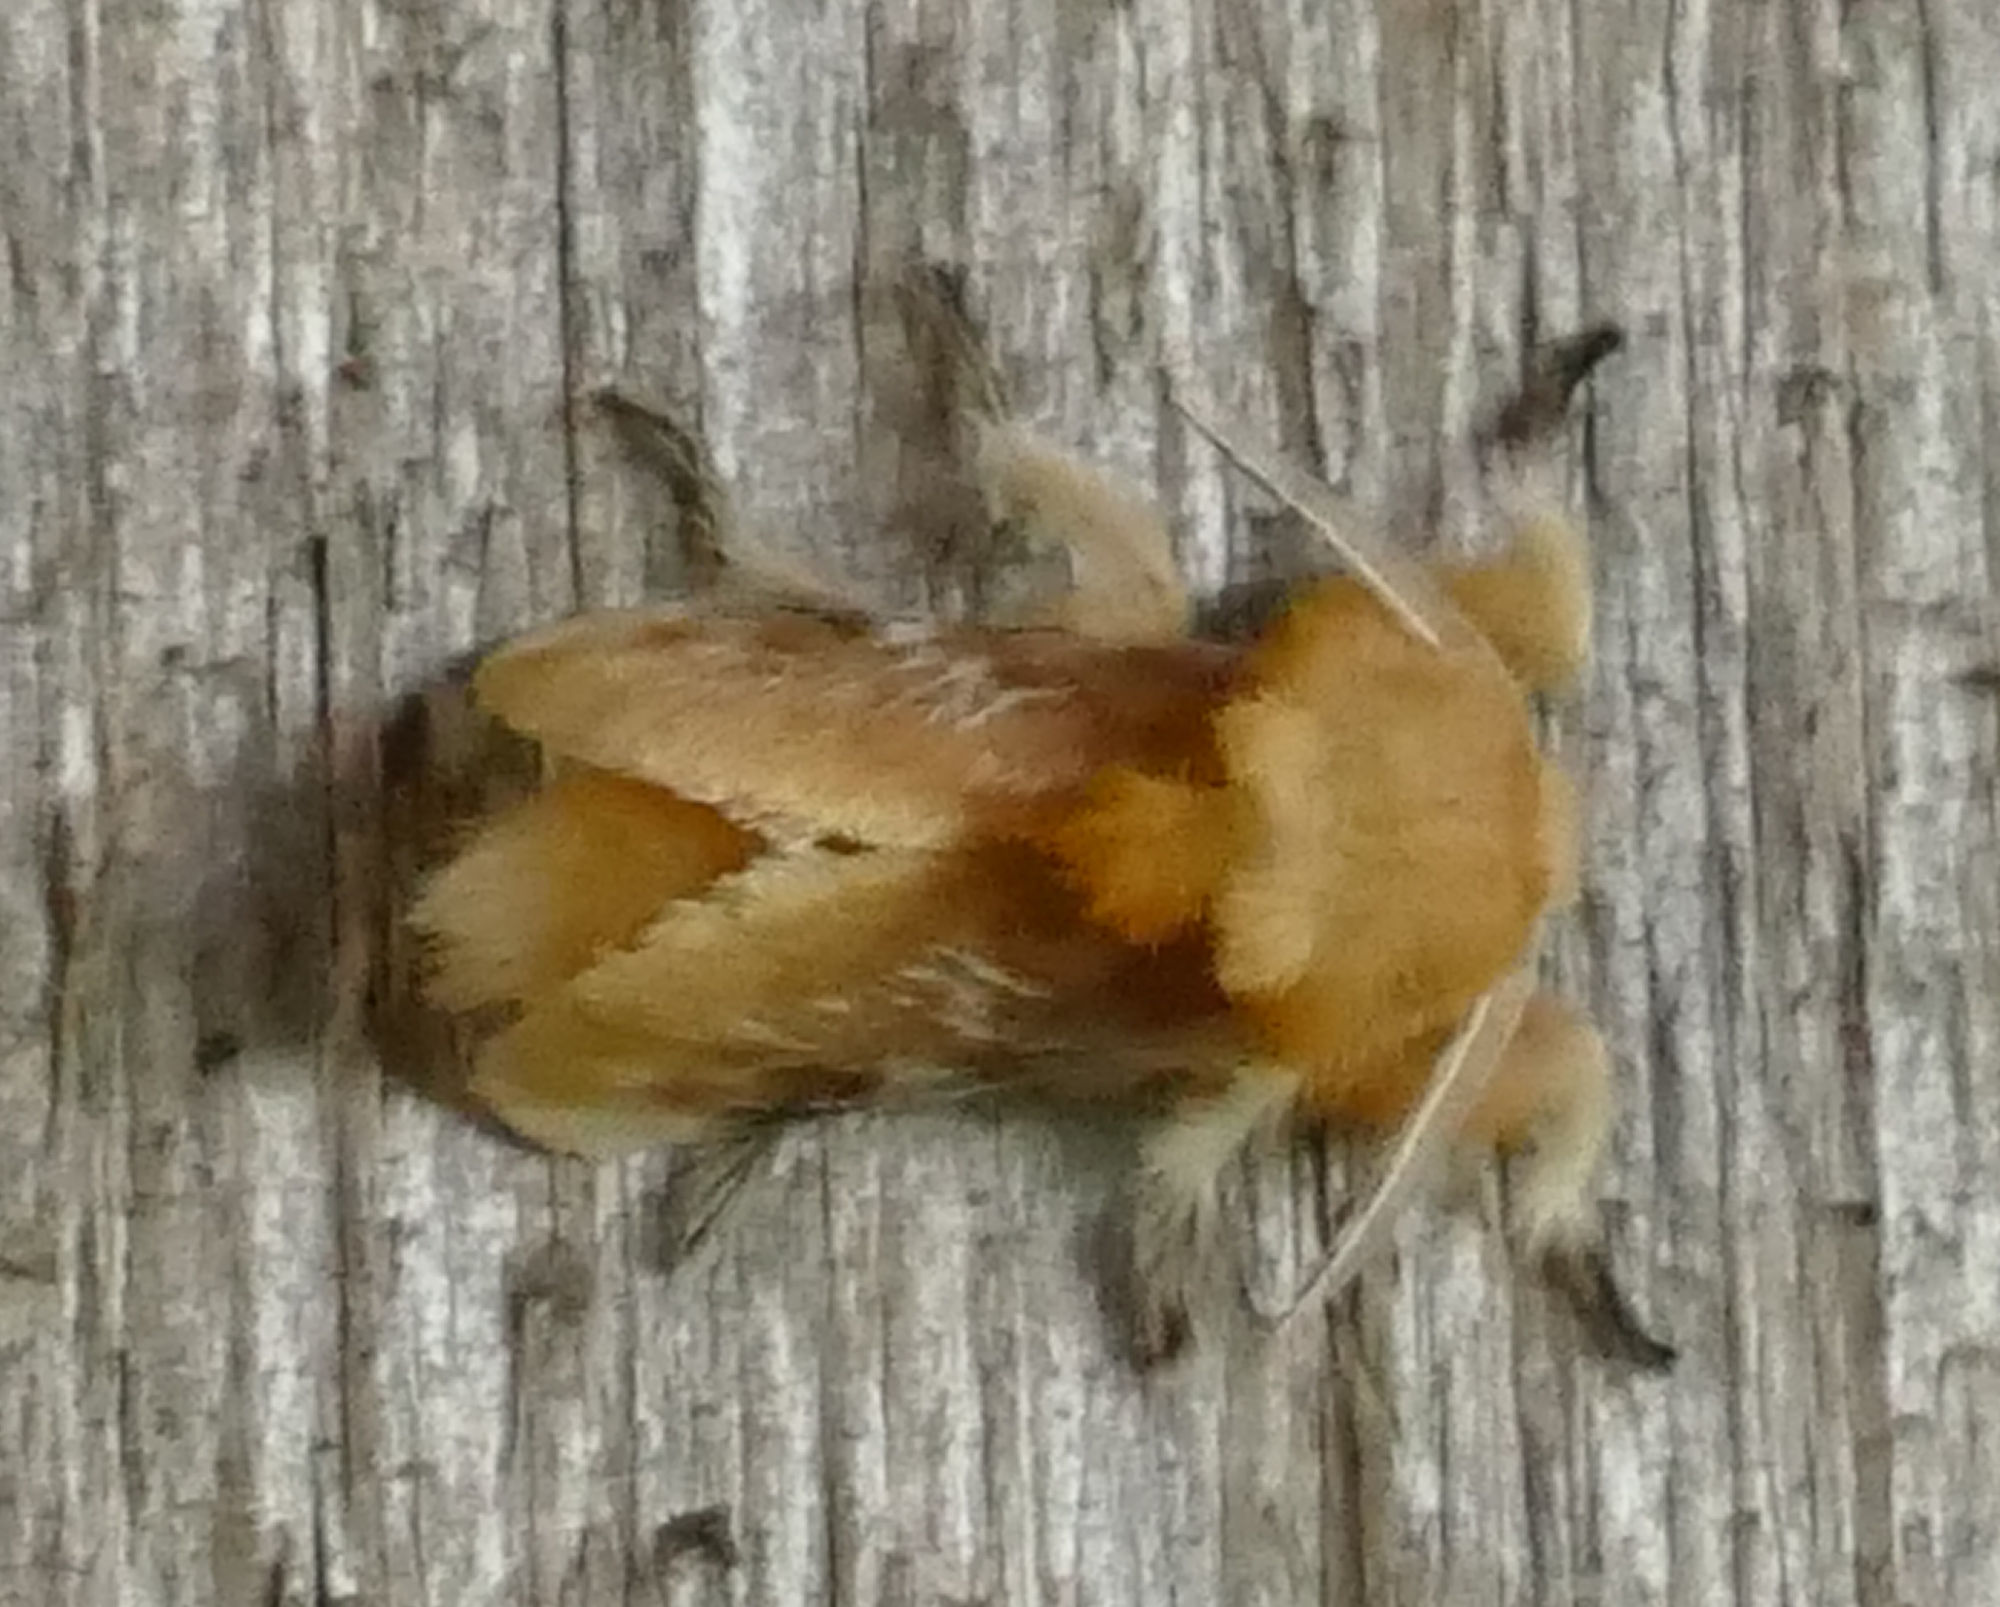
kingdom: Animalia
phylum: Arthropoda
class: Insecta
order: Lepidoptera
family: Megalopygidae
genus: Megalopyge
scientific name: Megalopyge opercularis
